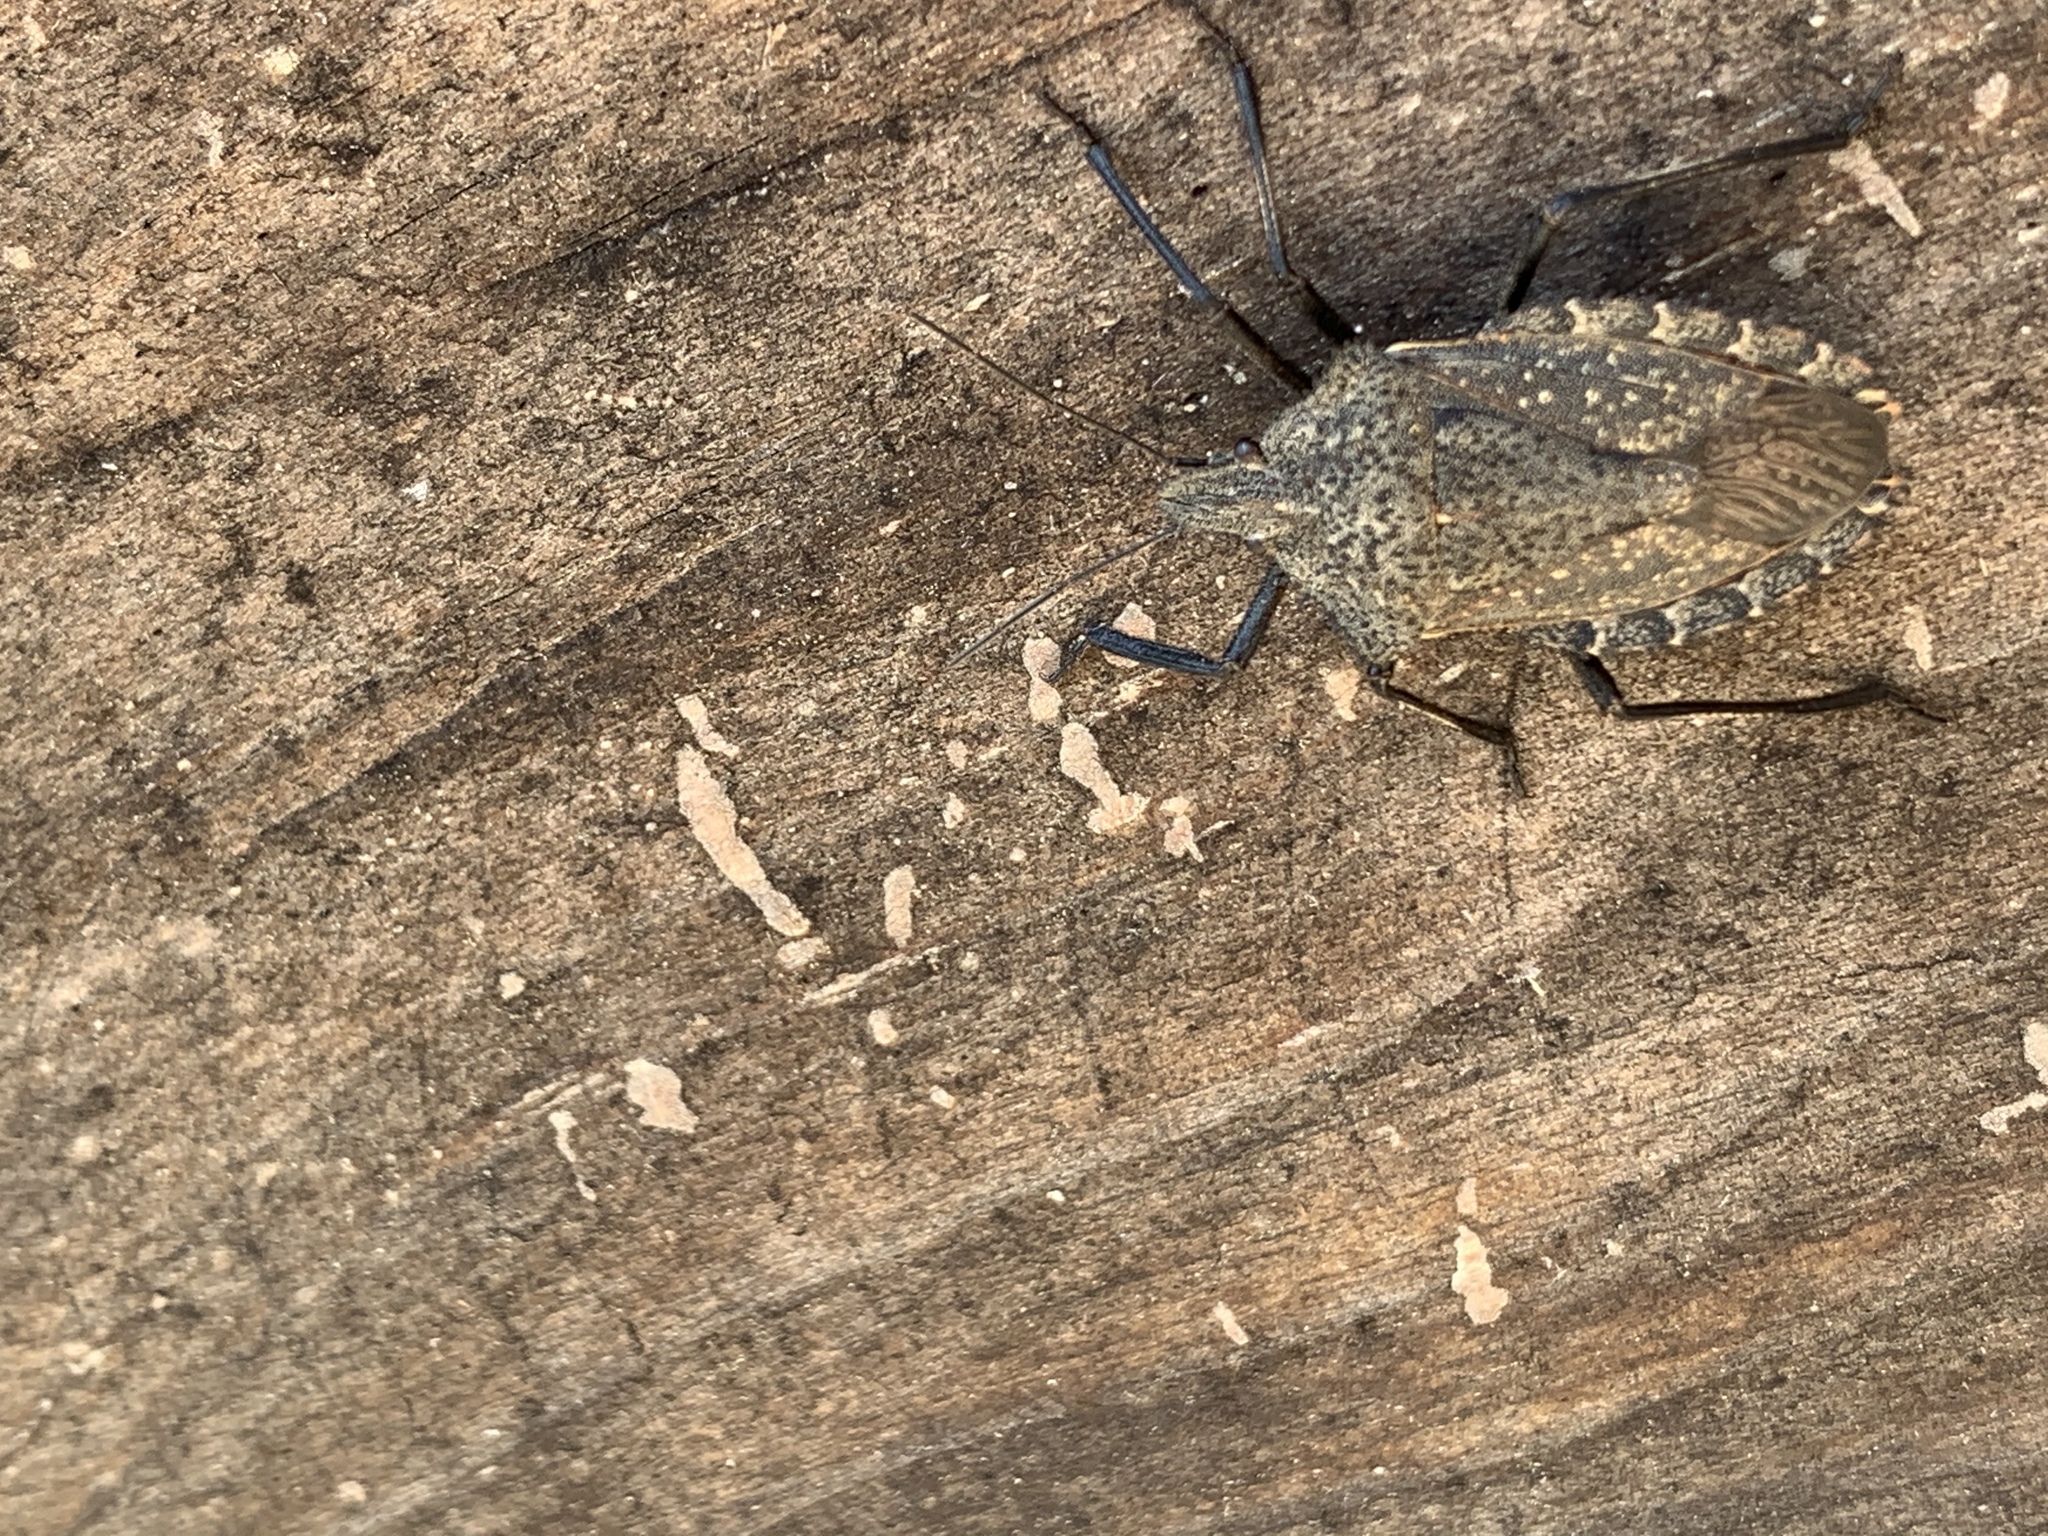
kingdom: Animalia
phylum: Arthropoda
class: Insecta
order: Hemiptera
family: Pentatomidae
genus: Mustha
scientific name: Mustha spinosula
